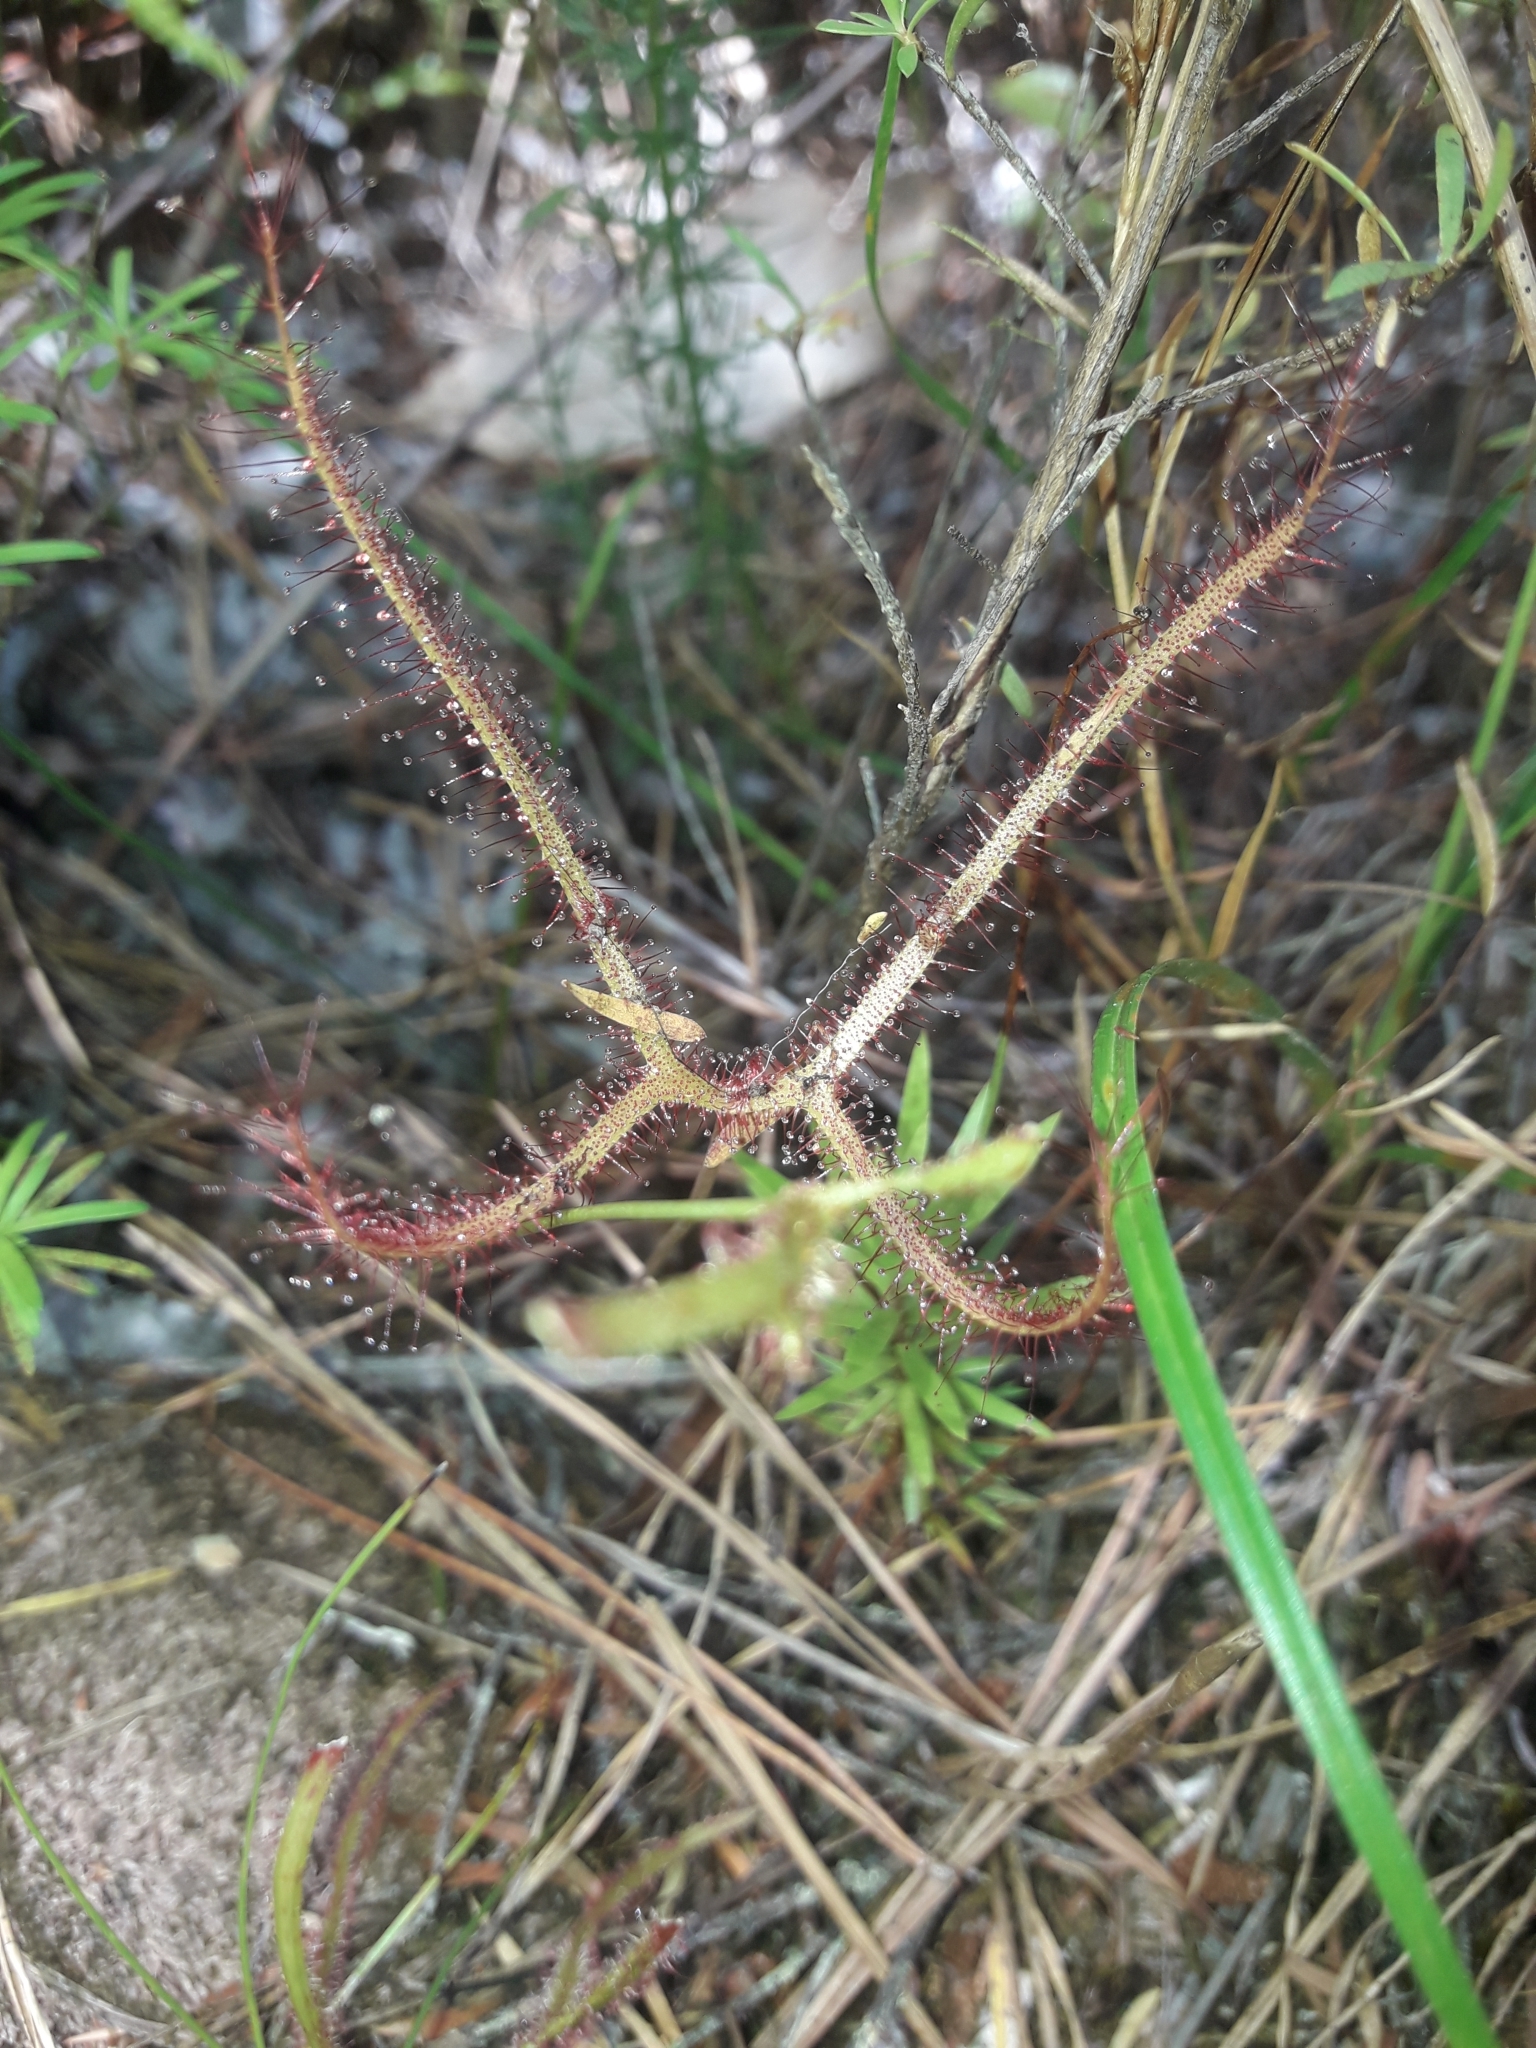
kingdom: Plantae
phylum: Tracheophyta
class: Magnoliopsida
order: Caryophyllales
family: Droseraceae
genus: Drosera
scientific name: Drosera binata
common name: Forked sundew
